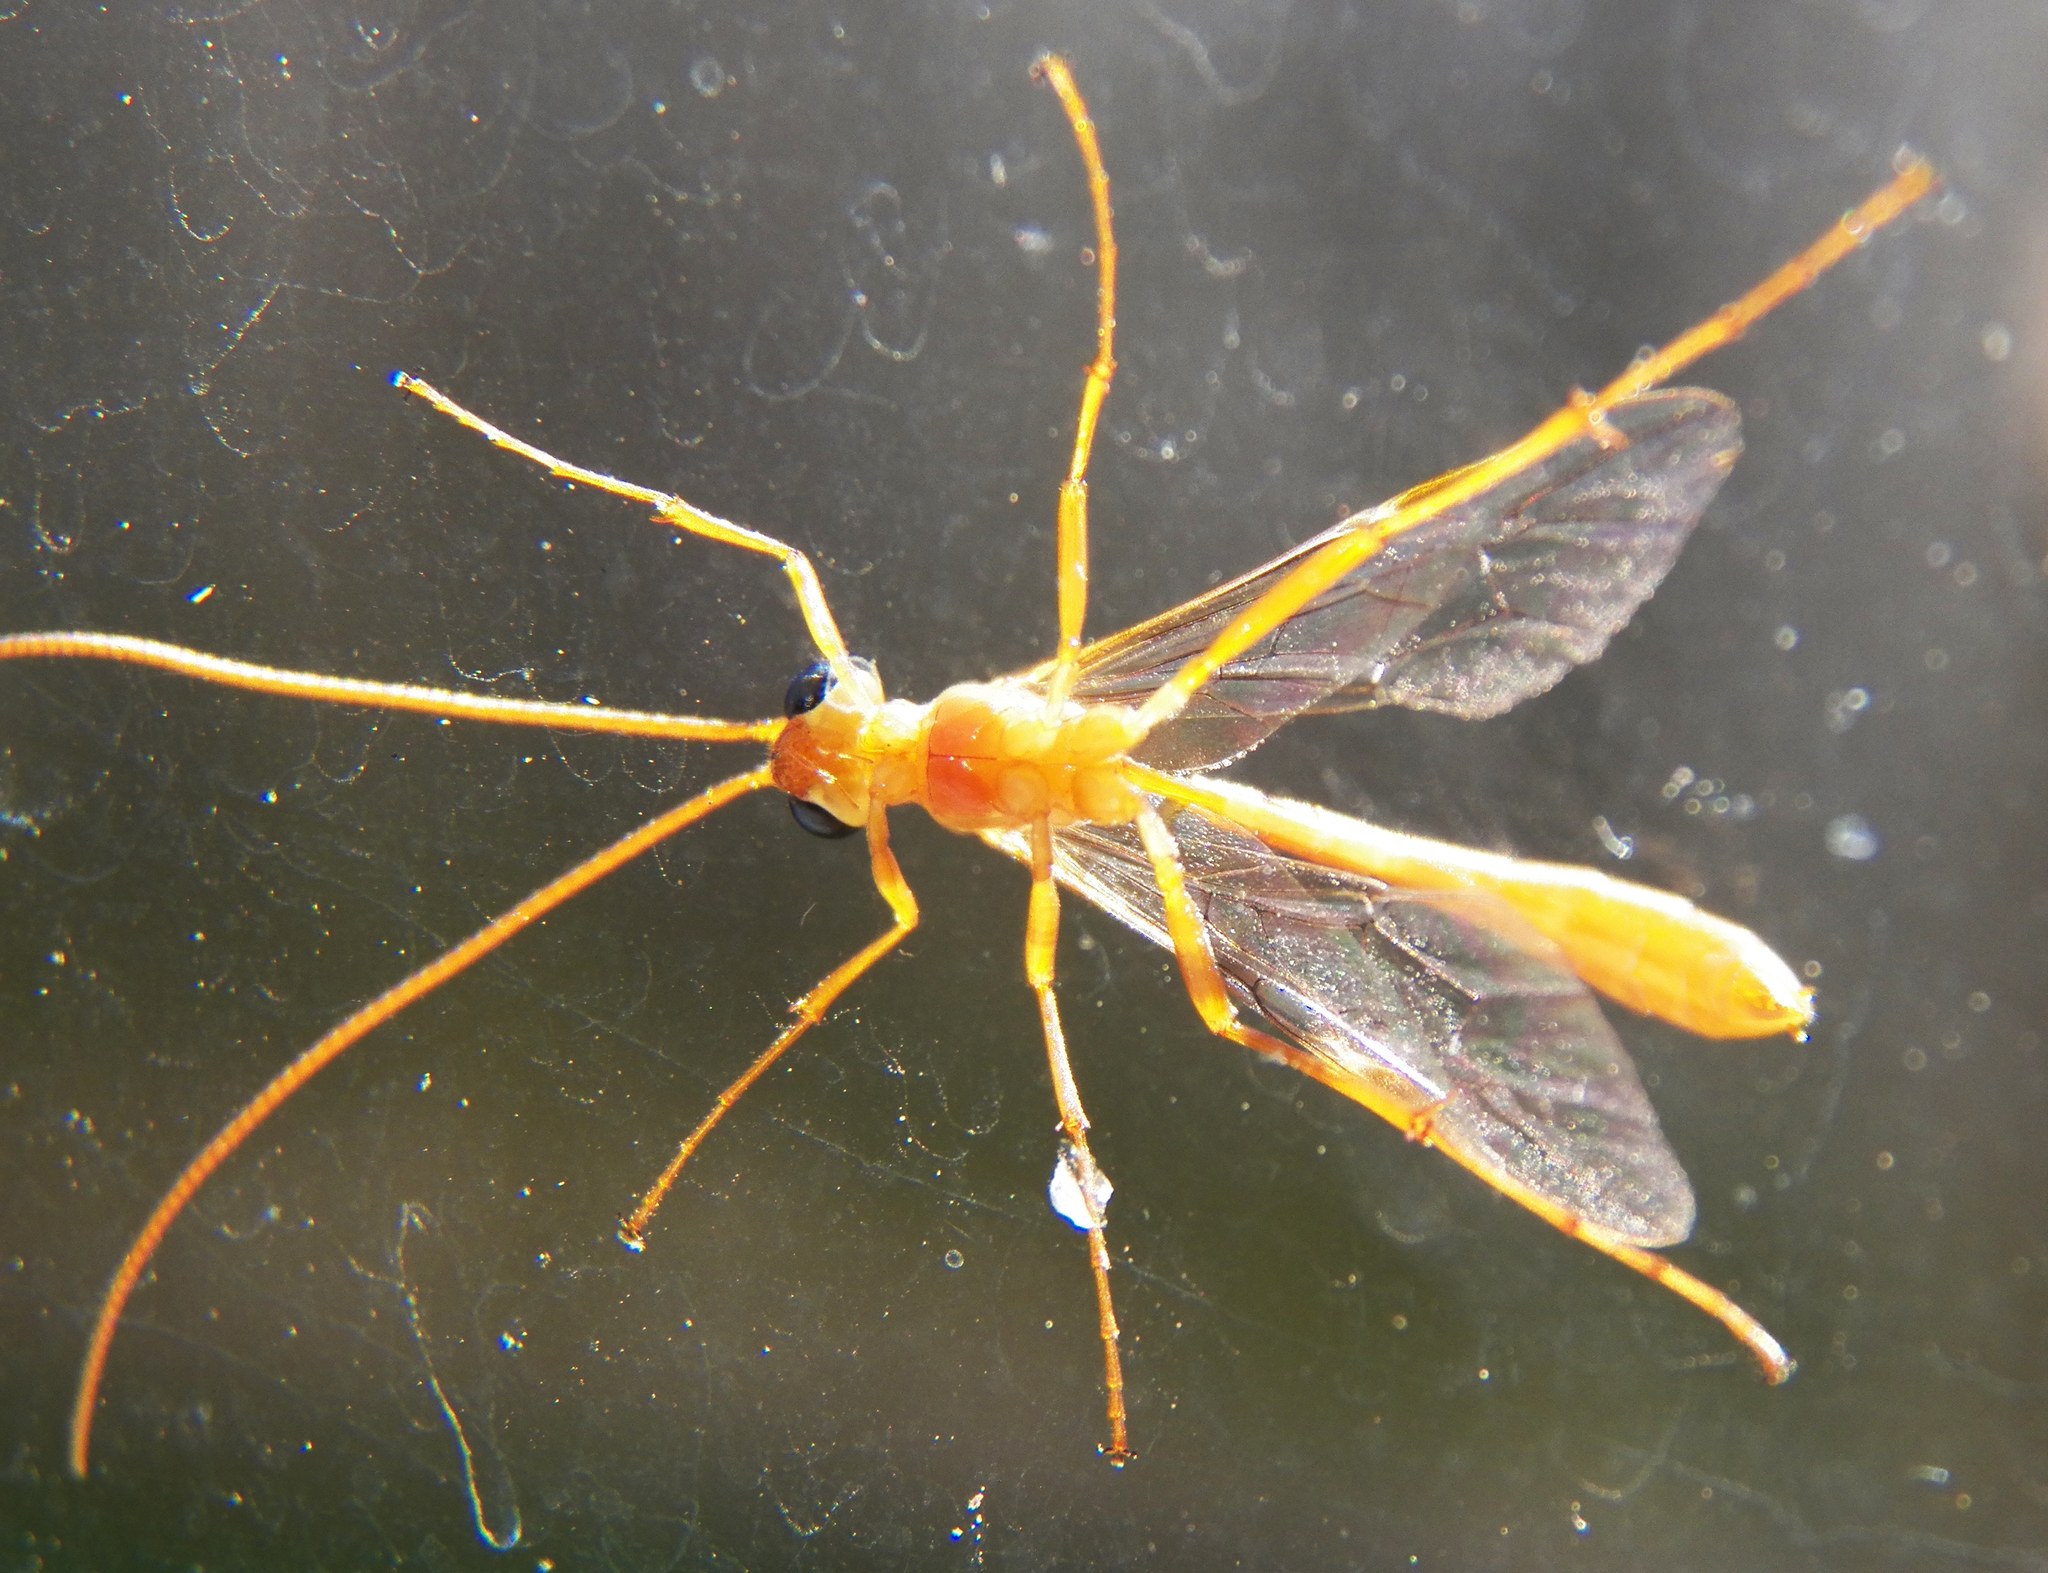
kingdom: Animalia
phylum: Arthropoda
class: Insecta
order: Hymenoptera
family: Ichneumonidae
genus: Ophion
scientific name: Ophion
